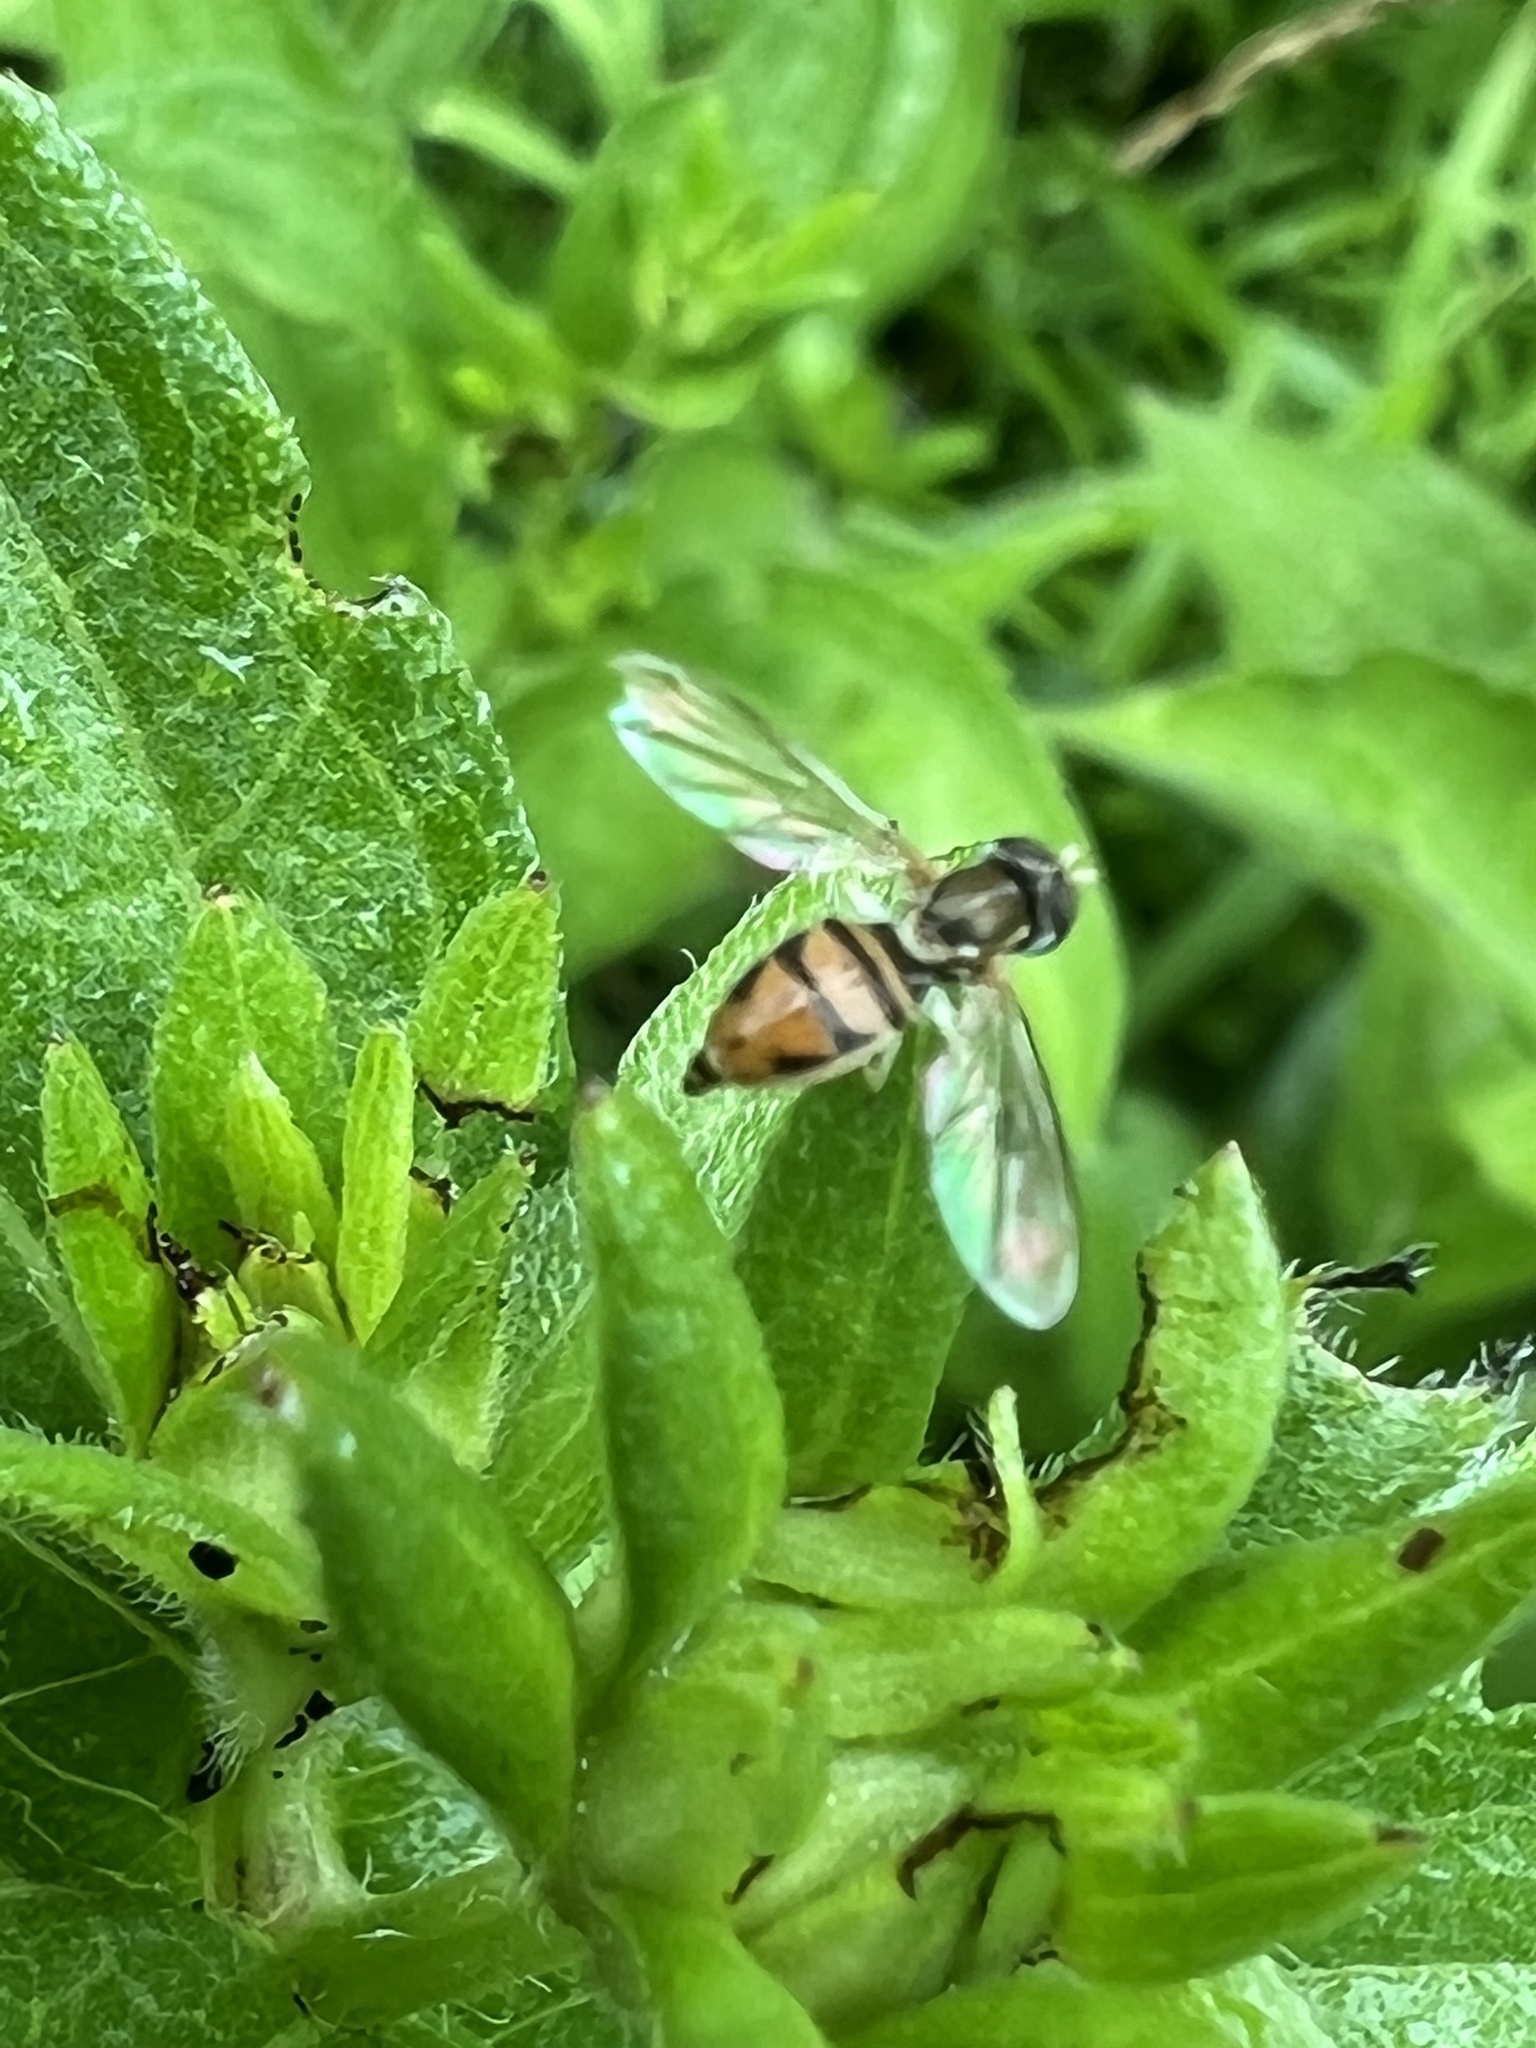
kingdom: Animalia
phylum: Arthropoda
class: Insecta
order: Diptera
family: Syrphidae
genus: Toxomerus
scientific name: Toxomerus marginatus
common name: Syrphid fly
